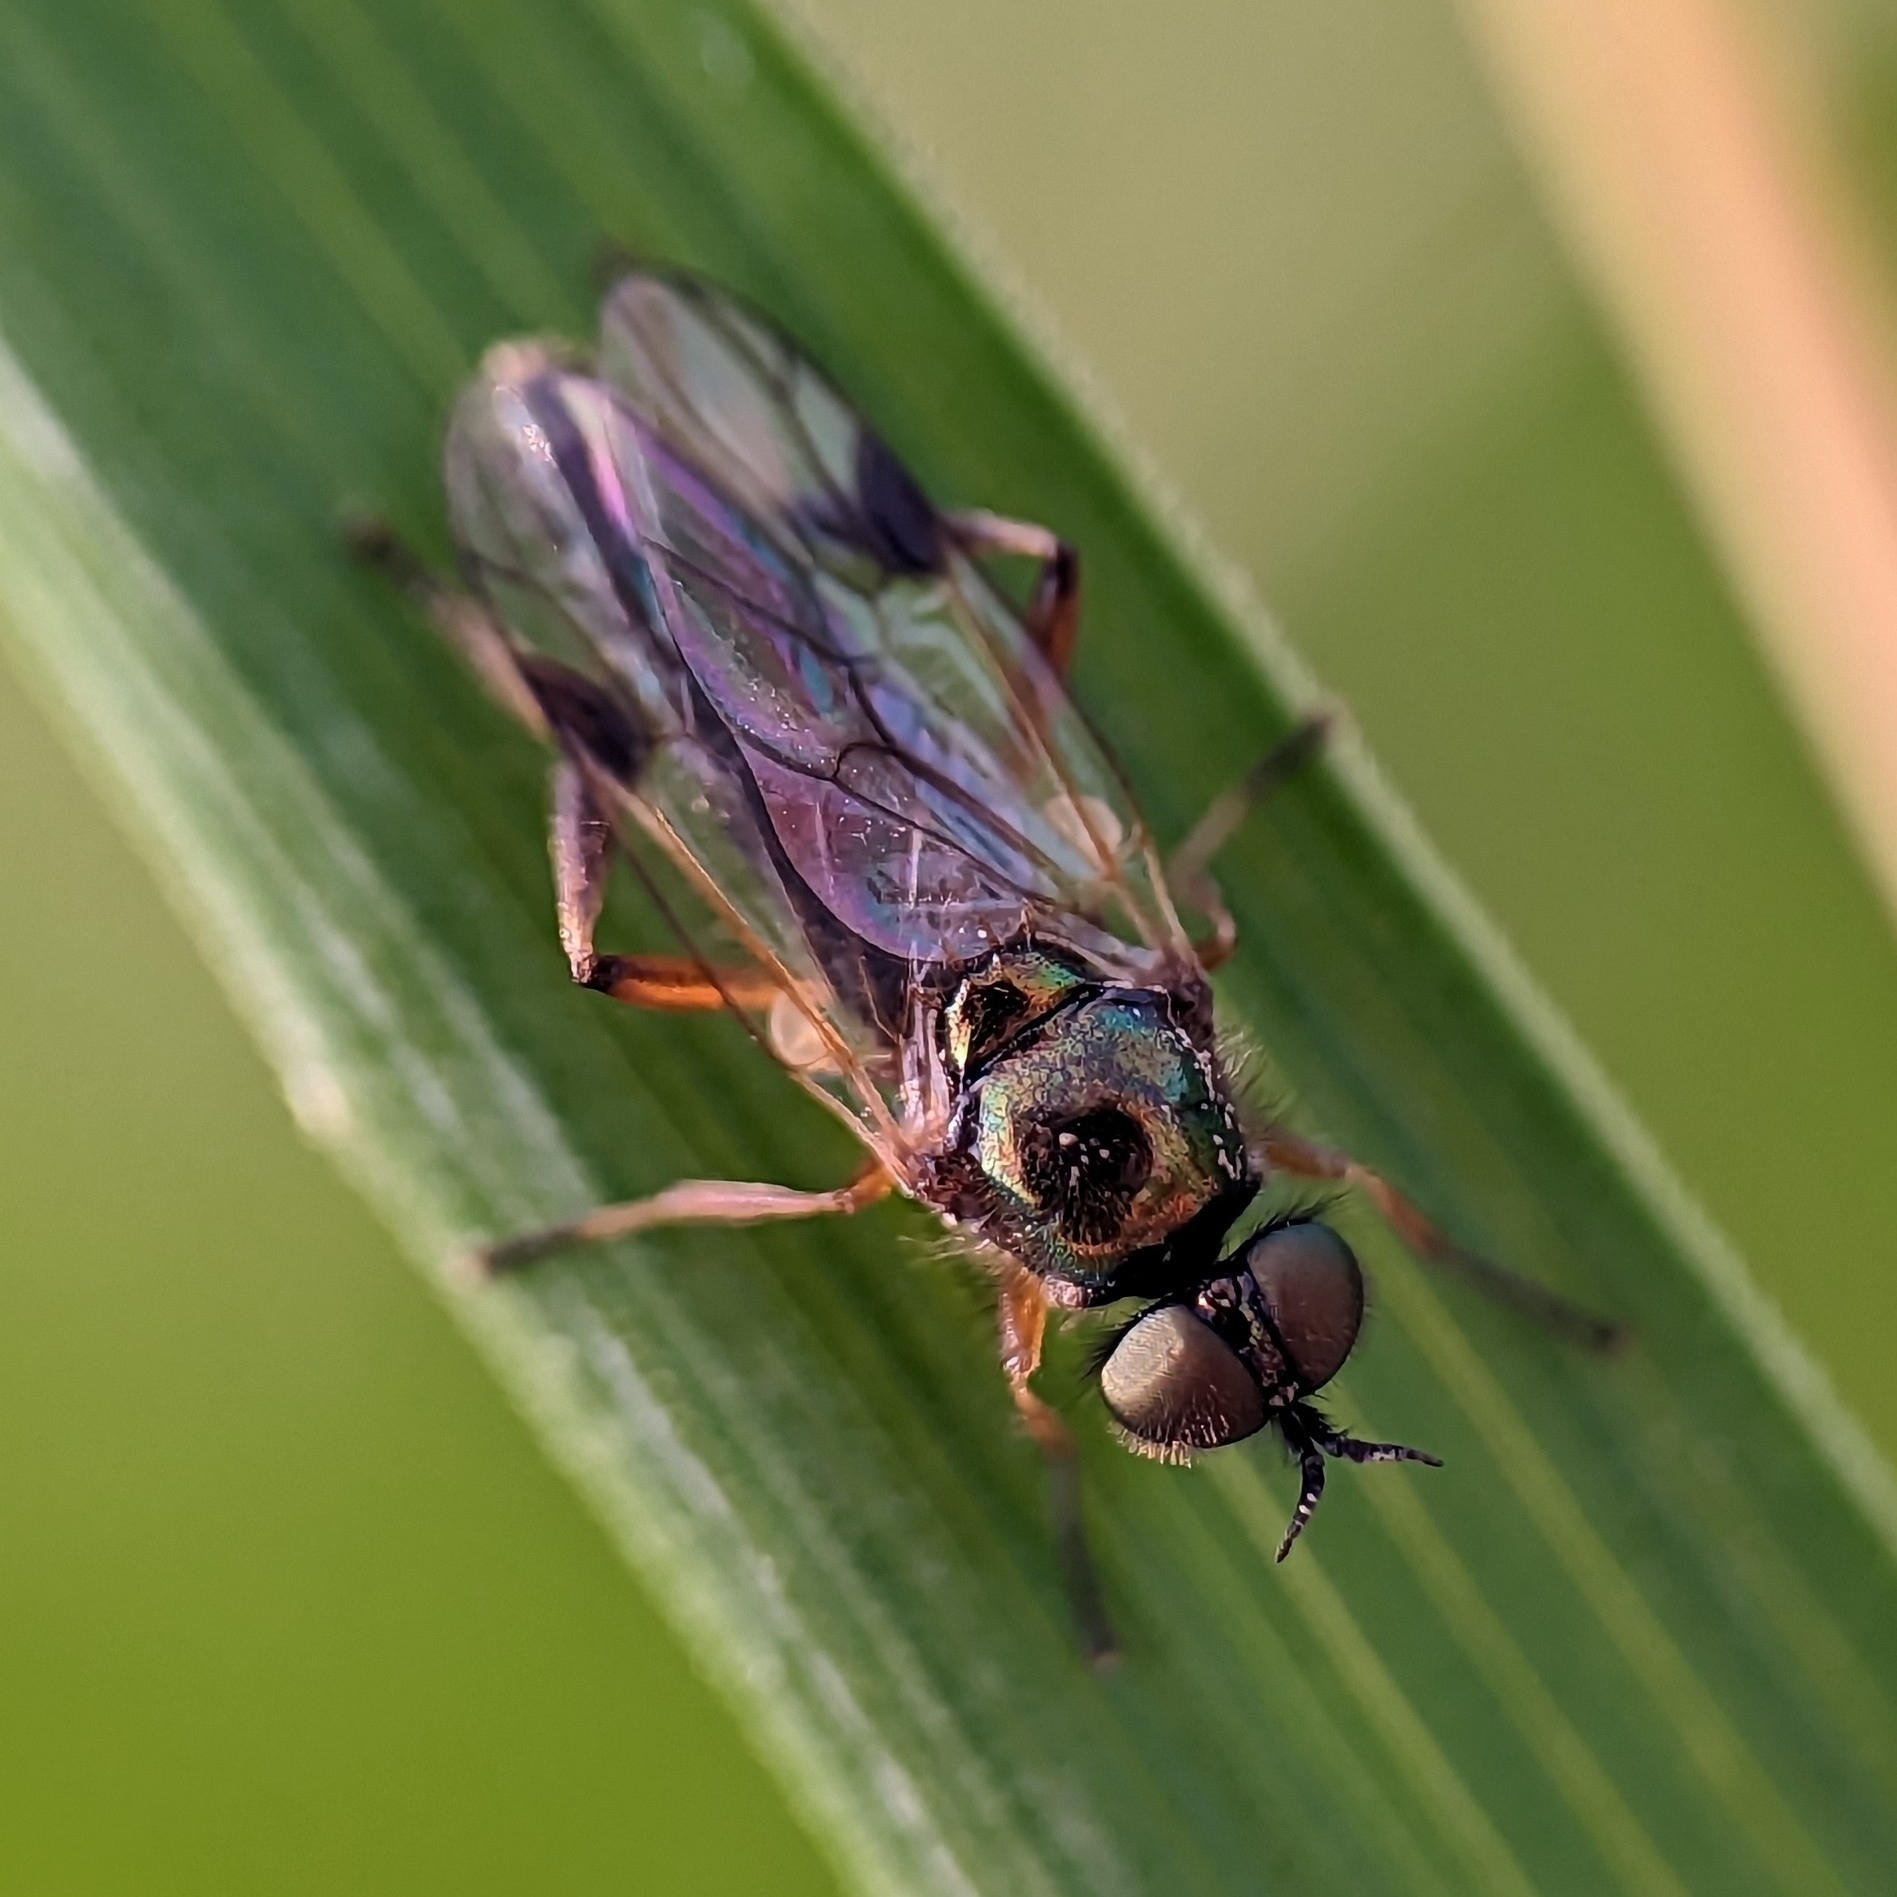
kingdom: Animalia
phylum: Arthropoda
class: Insecta
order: Diptera
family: Stratiomyidae
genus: Actina
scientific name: Actina viridis
